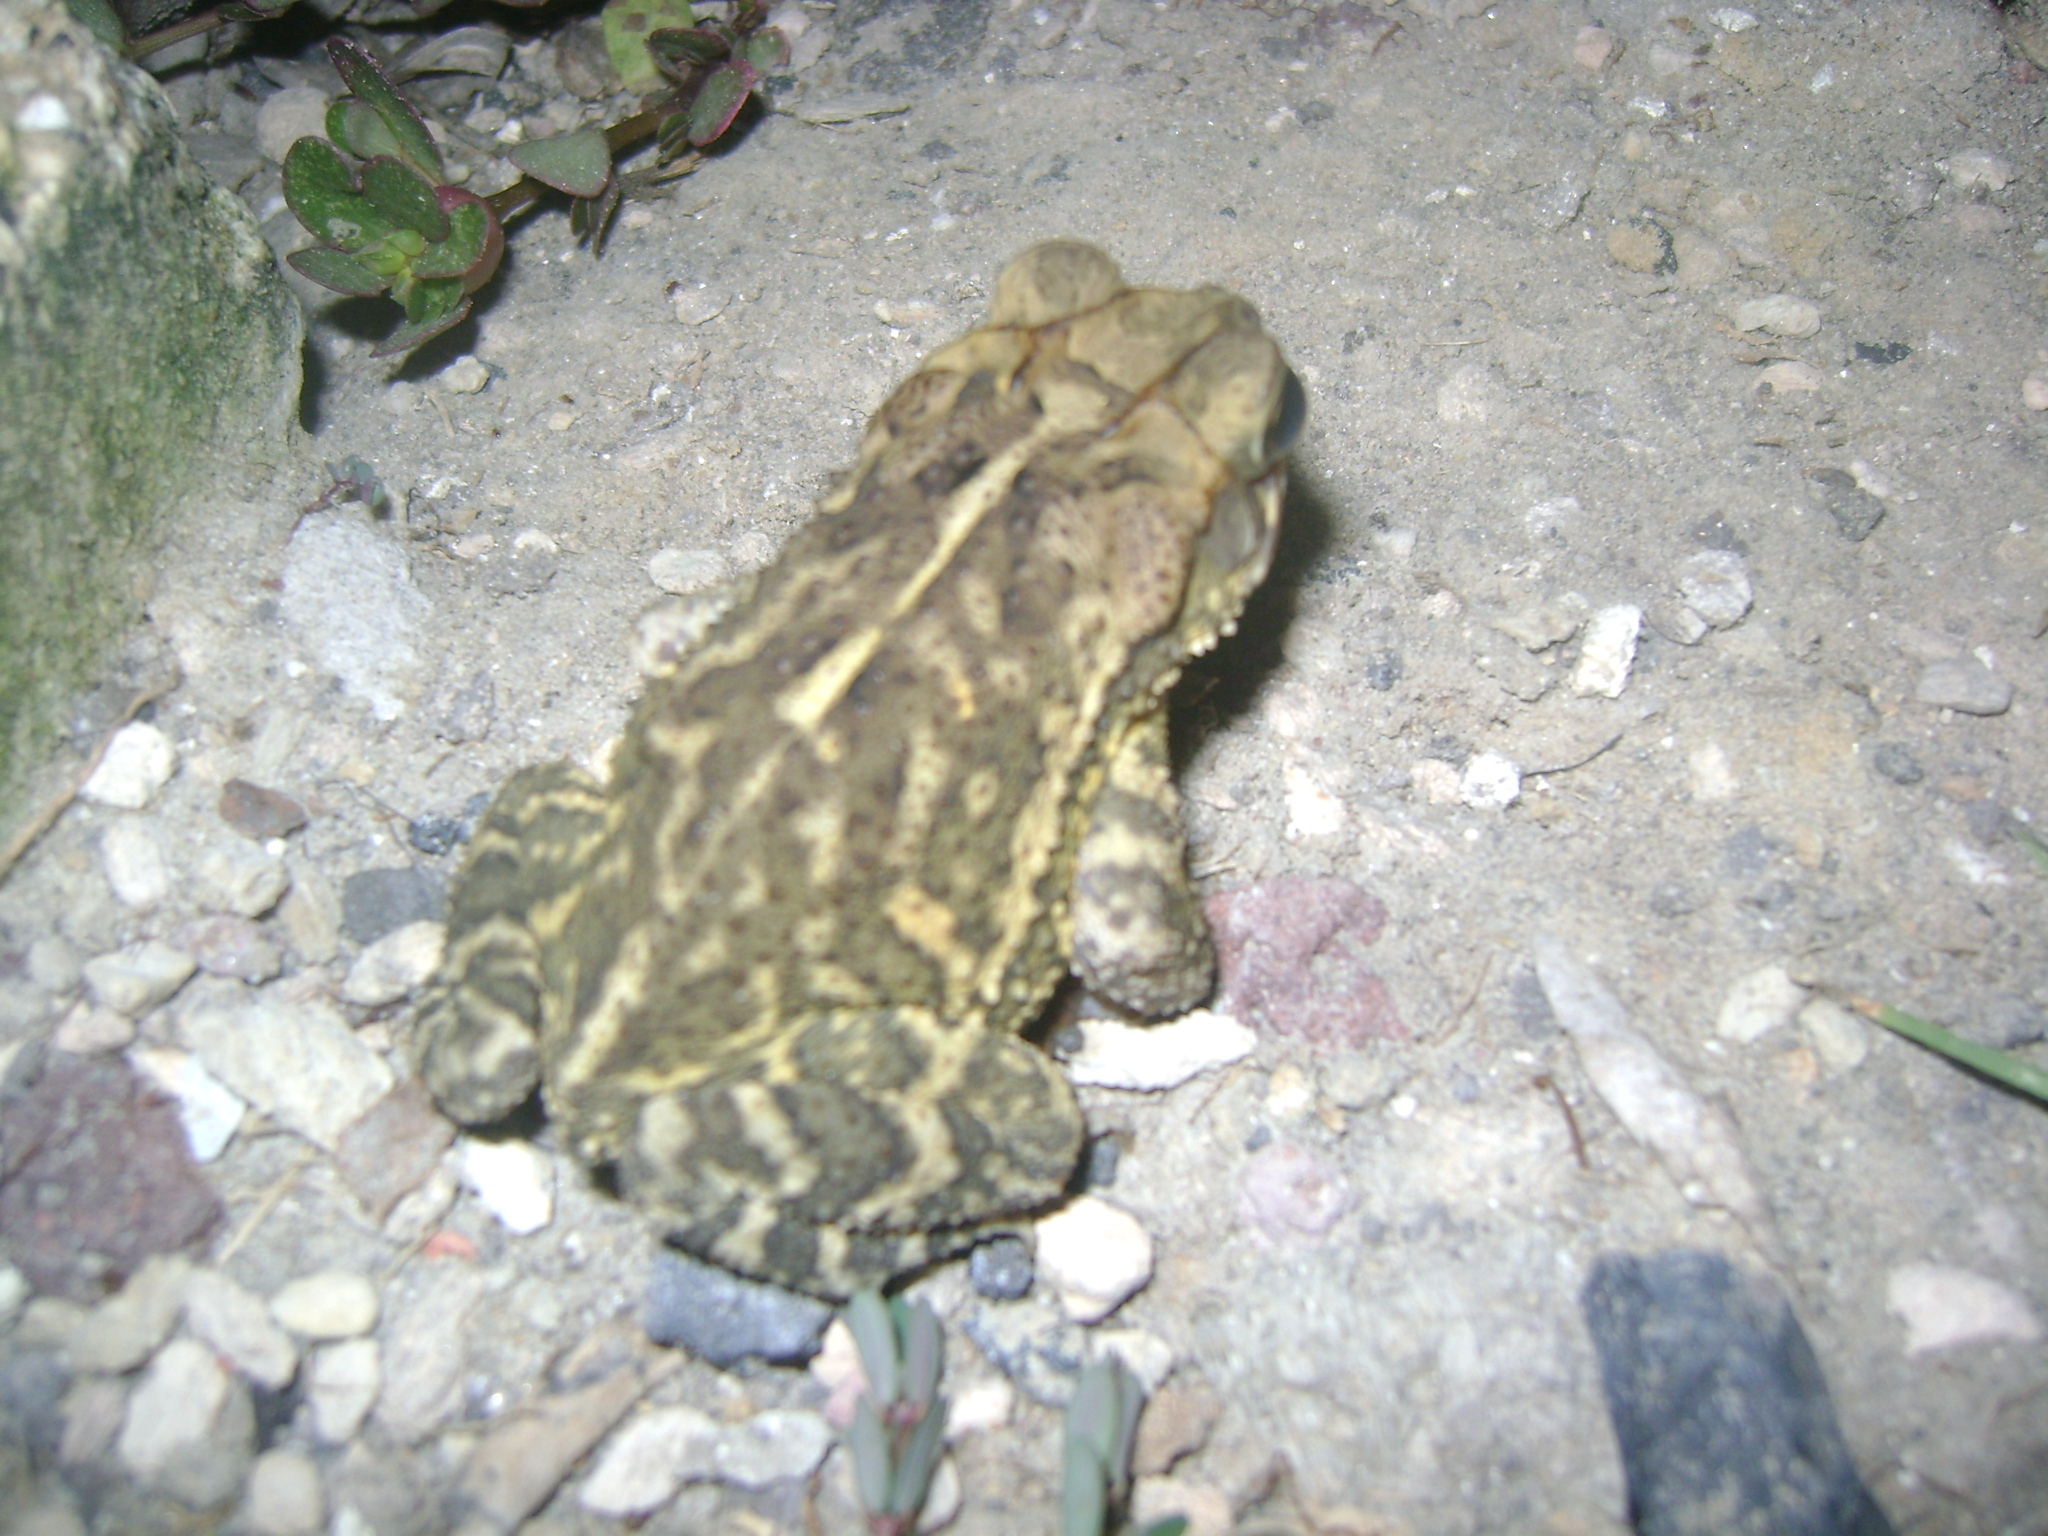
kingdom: Animalia
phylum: Chordata
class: Amphibia
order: Anura
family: Bufonidae
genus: Incilius
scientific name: Incilius valliceps
